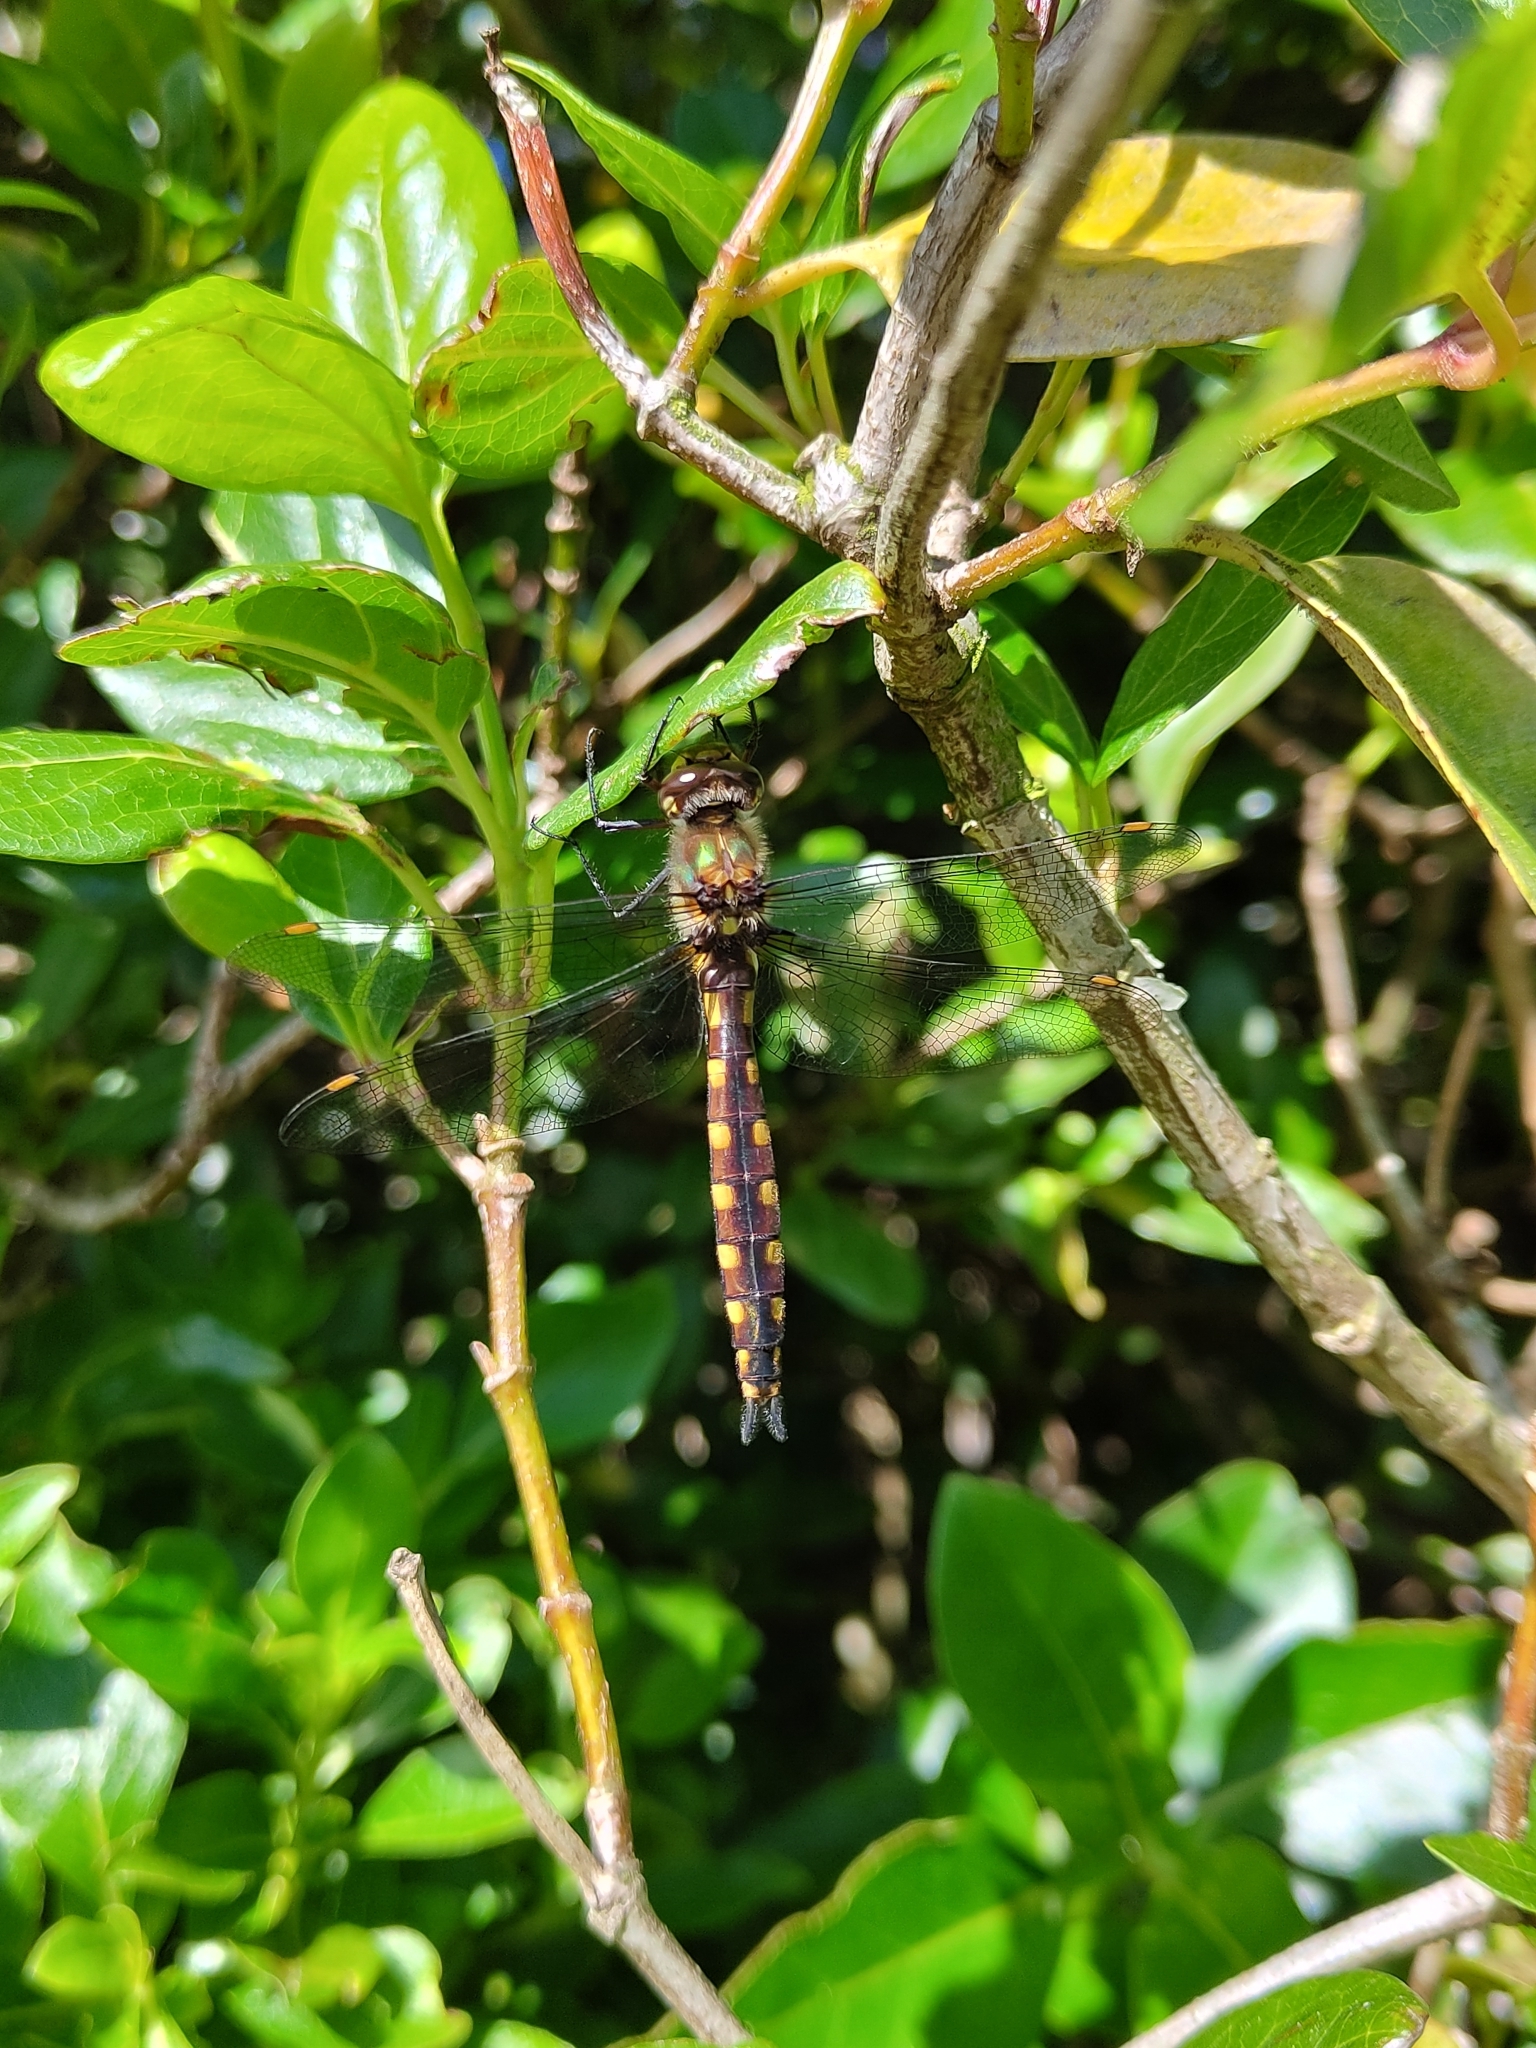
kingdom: Animalia
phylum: Arthropoda
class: Insecta
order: Odonata
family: Corduliidae
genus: Procordulia
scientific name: Procordulia grayi
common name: Yellow spotted dragonfly
